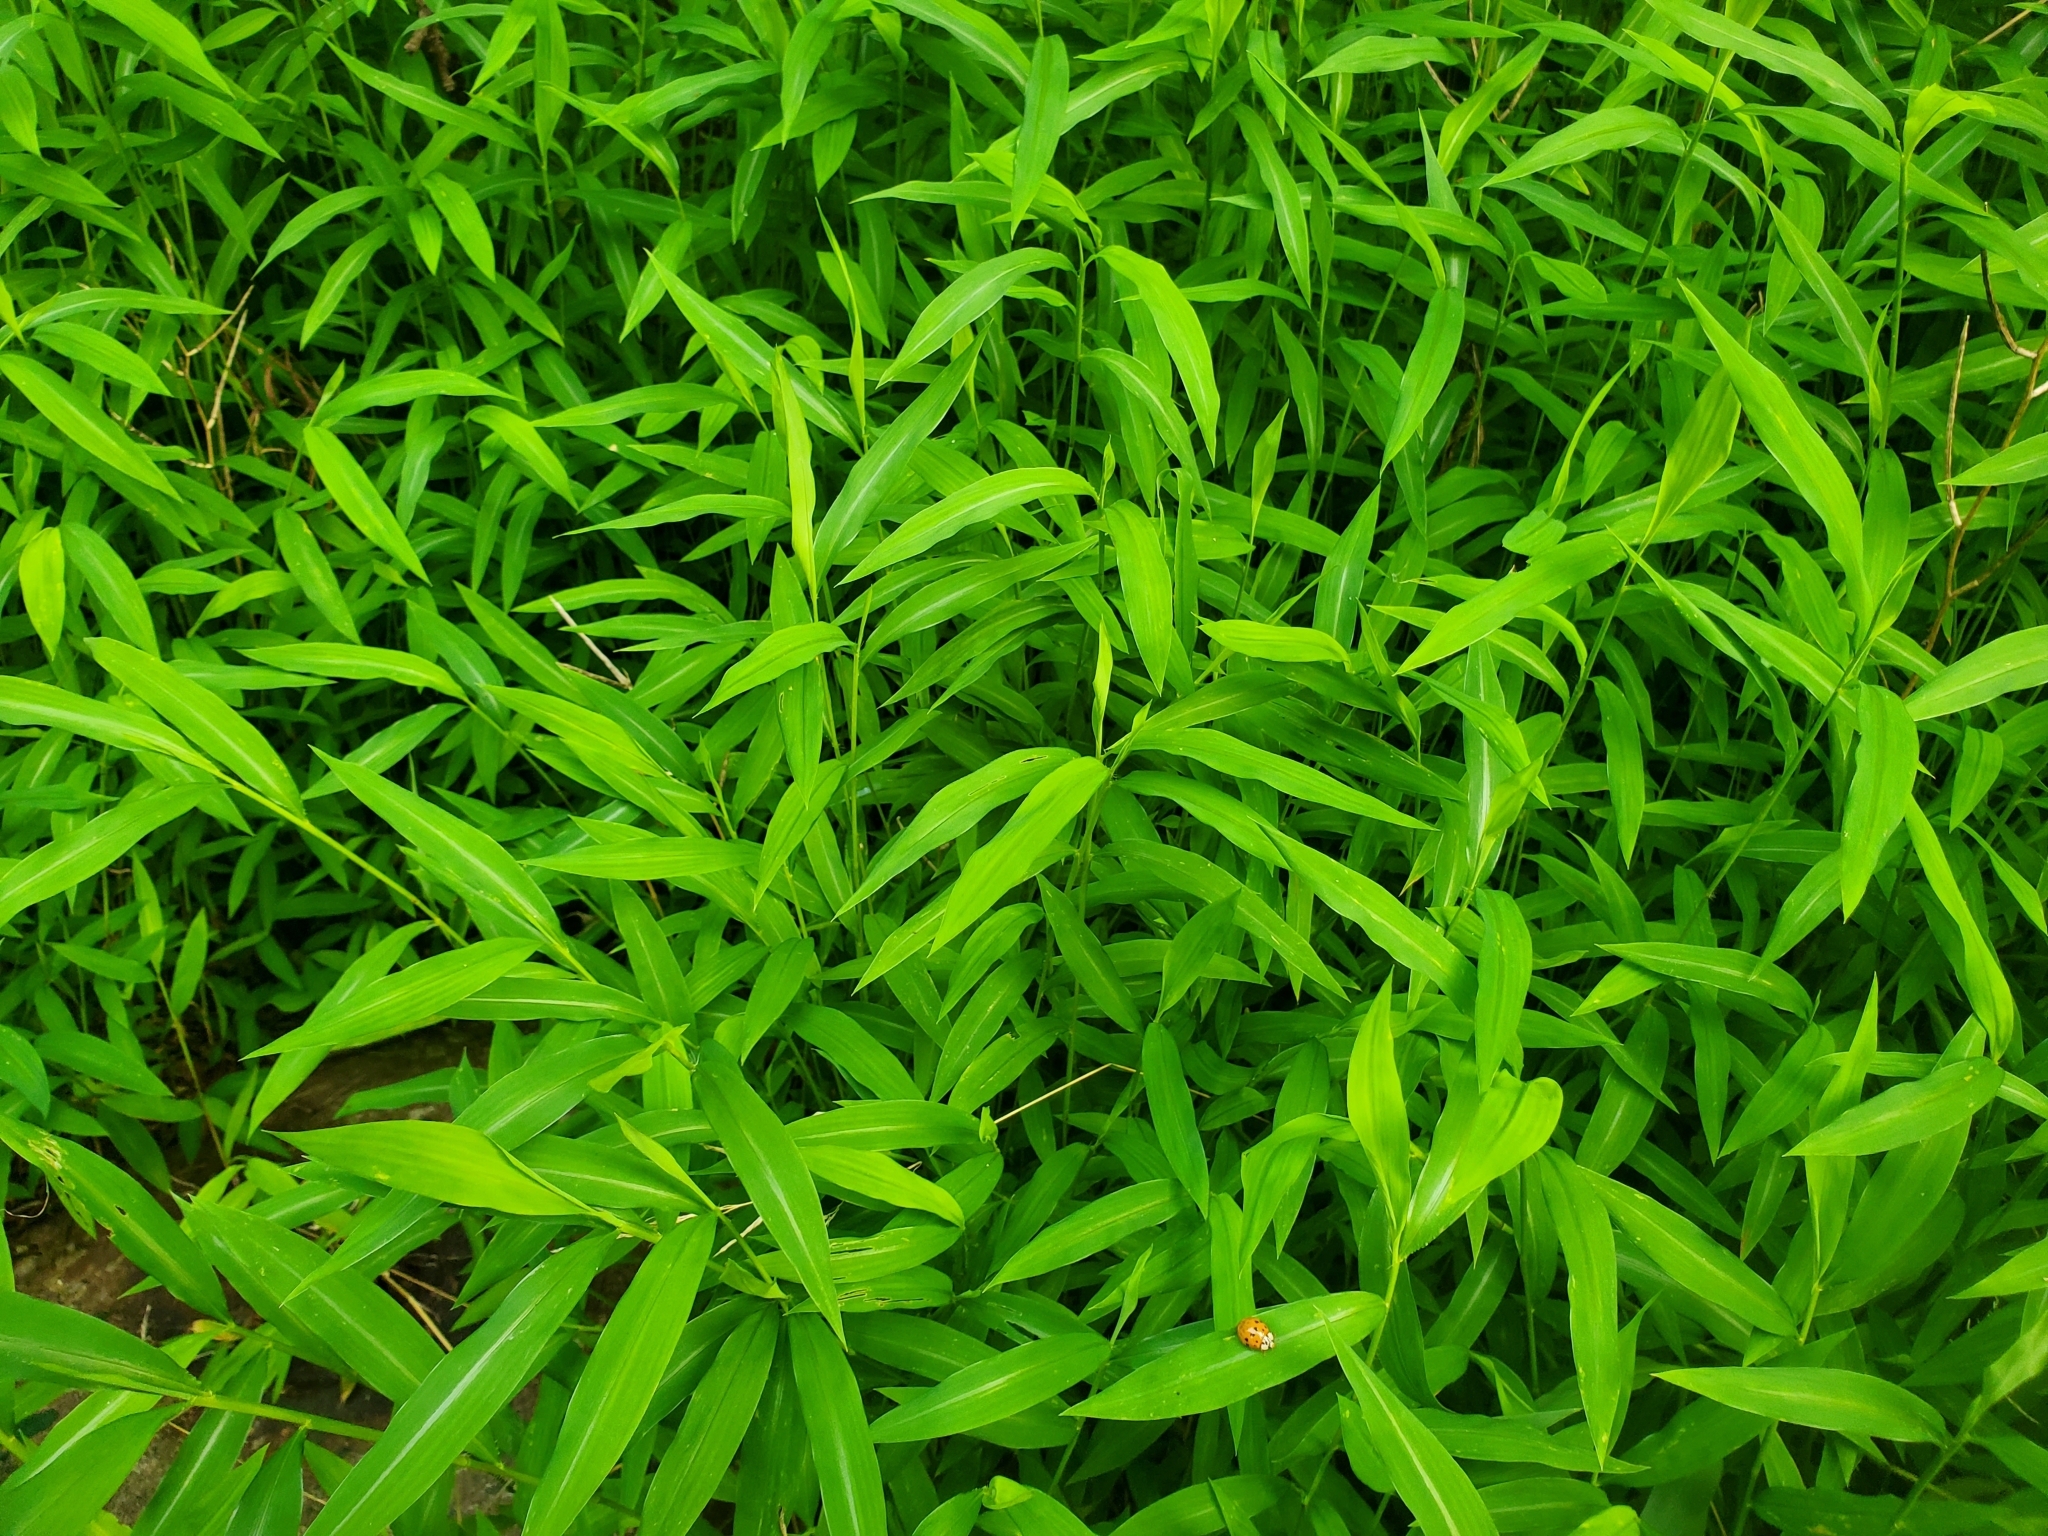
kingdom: Plantae
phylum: Tracheophyta
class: Liliopsida
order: Poales
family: Poaceae
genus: Microstegium
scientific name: Microstegium vimineum
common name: Japanese stiltgrass
